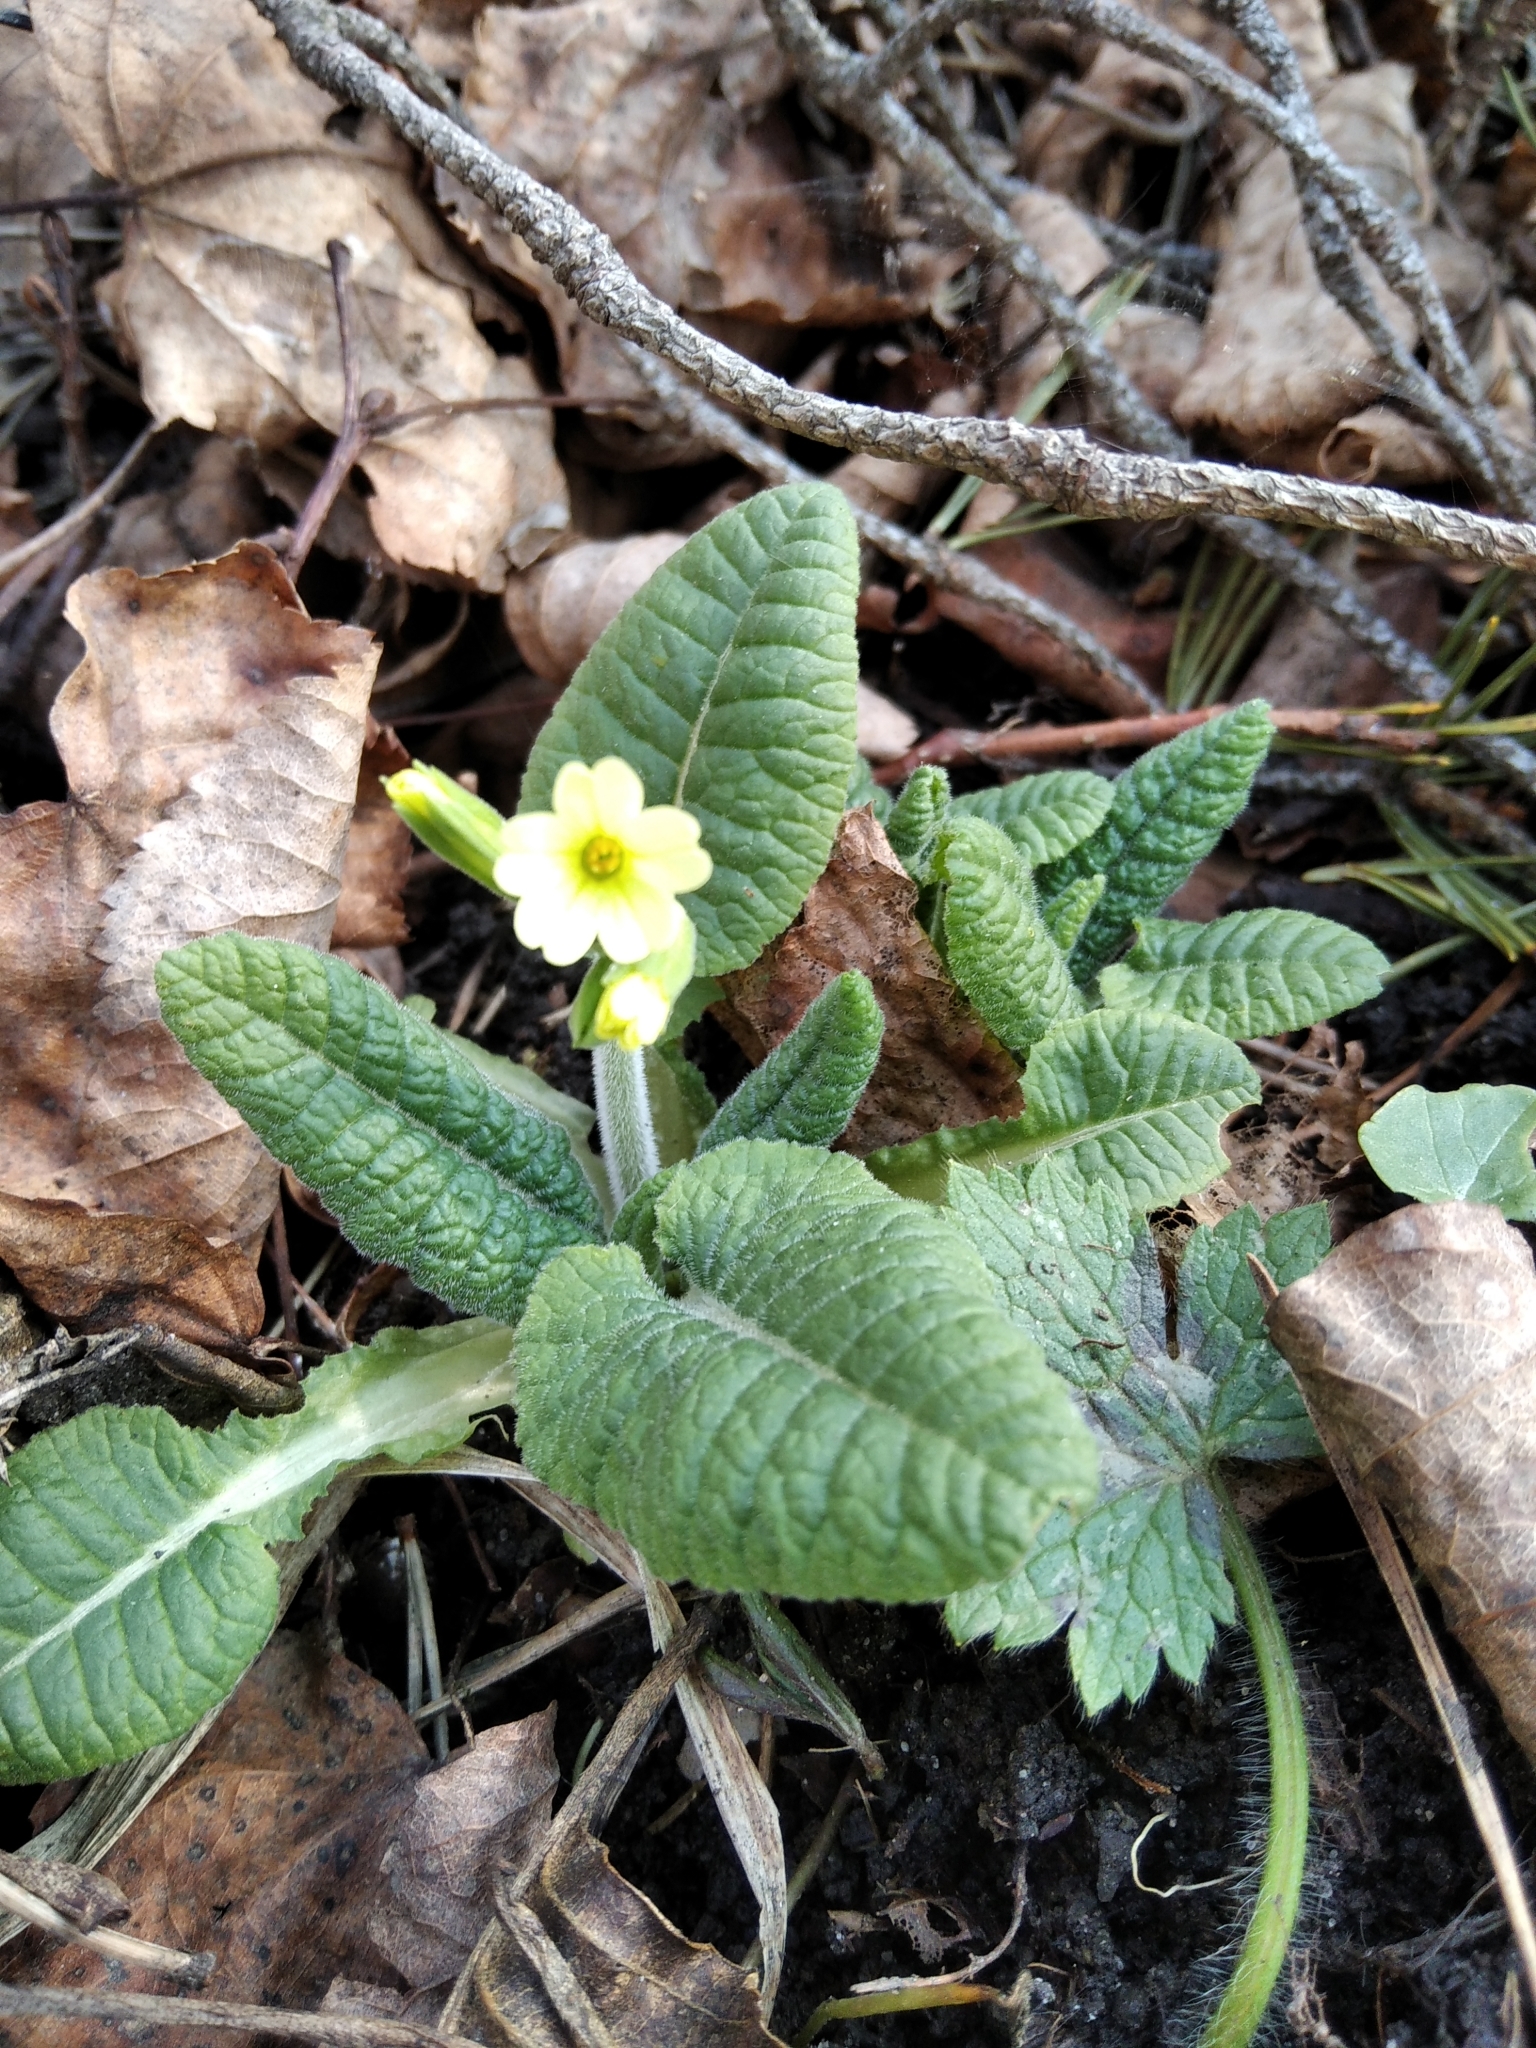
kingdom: Plantae
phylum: Tracheophyta
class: Magnoliopsida
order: Ericales
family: Primulaceae
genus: Primula
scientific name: Primula elatior
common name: Oxlip
